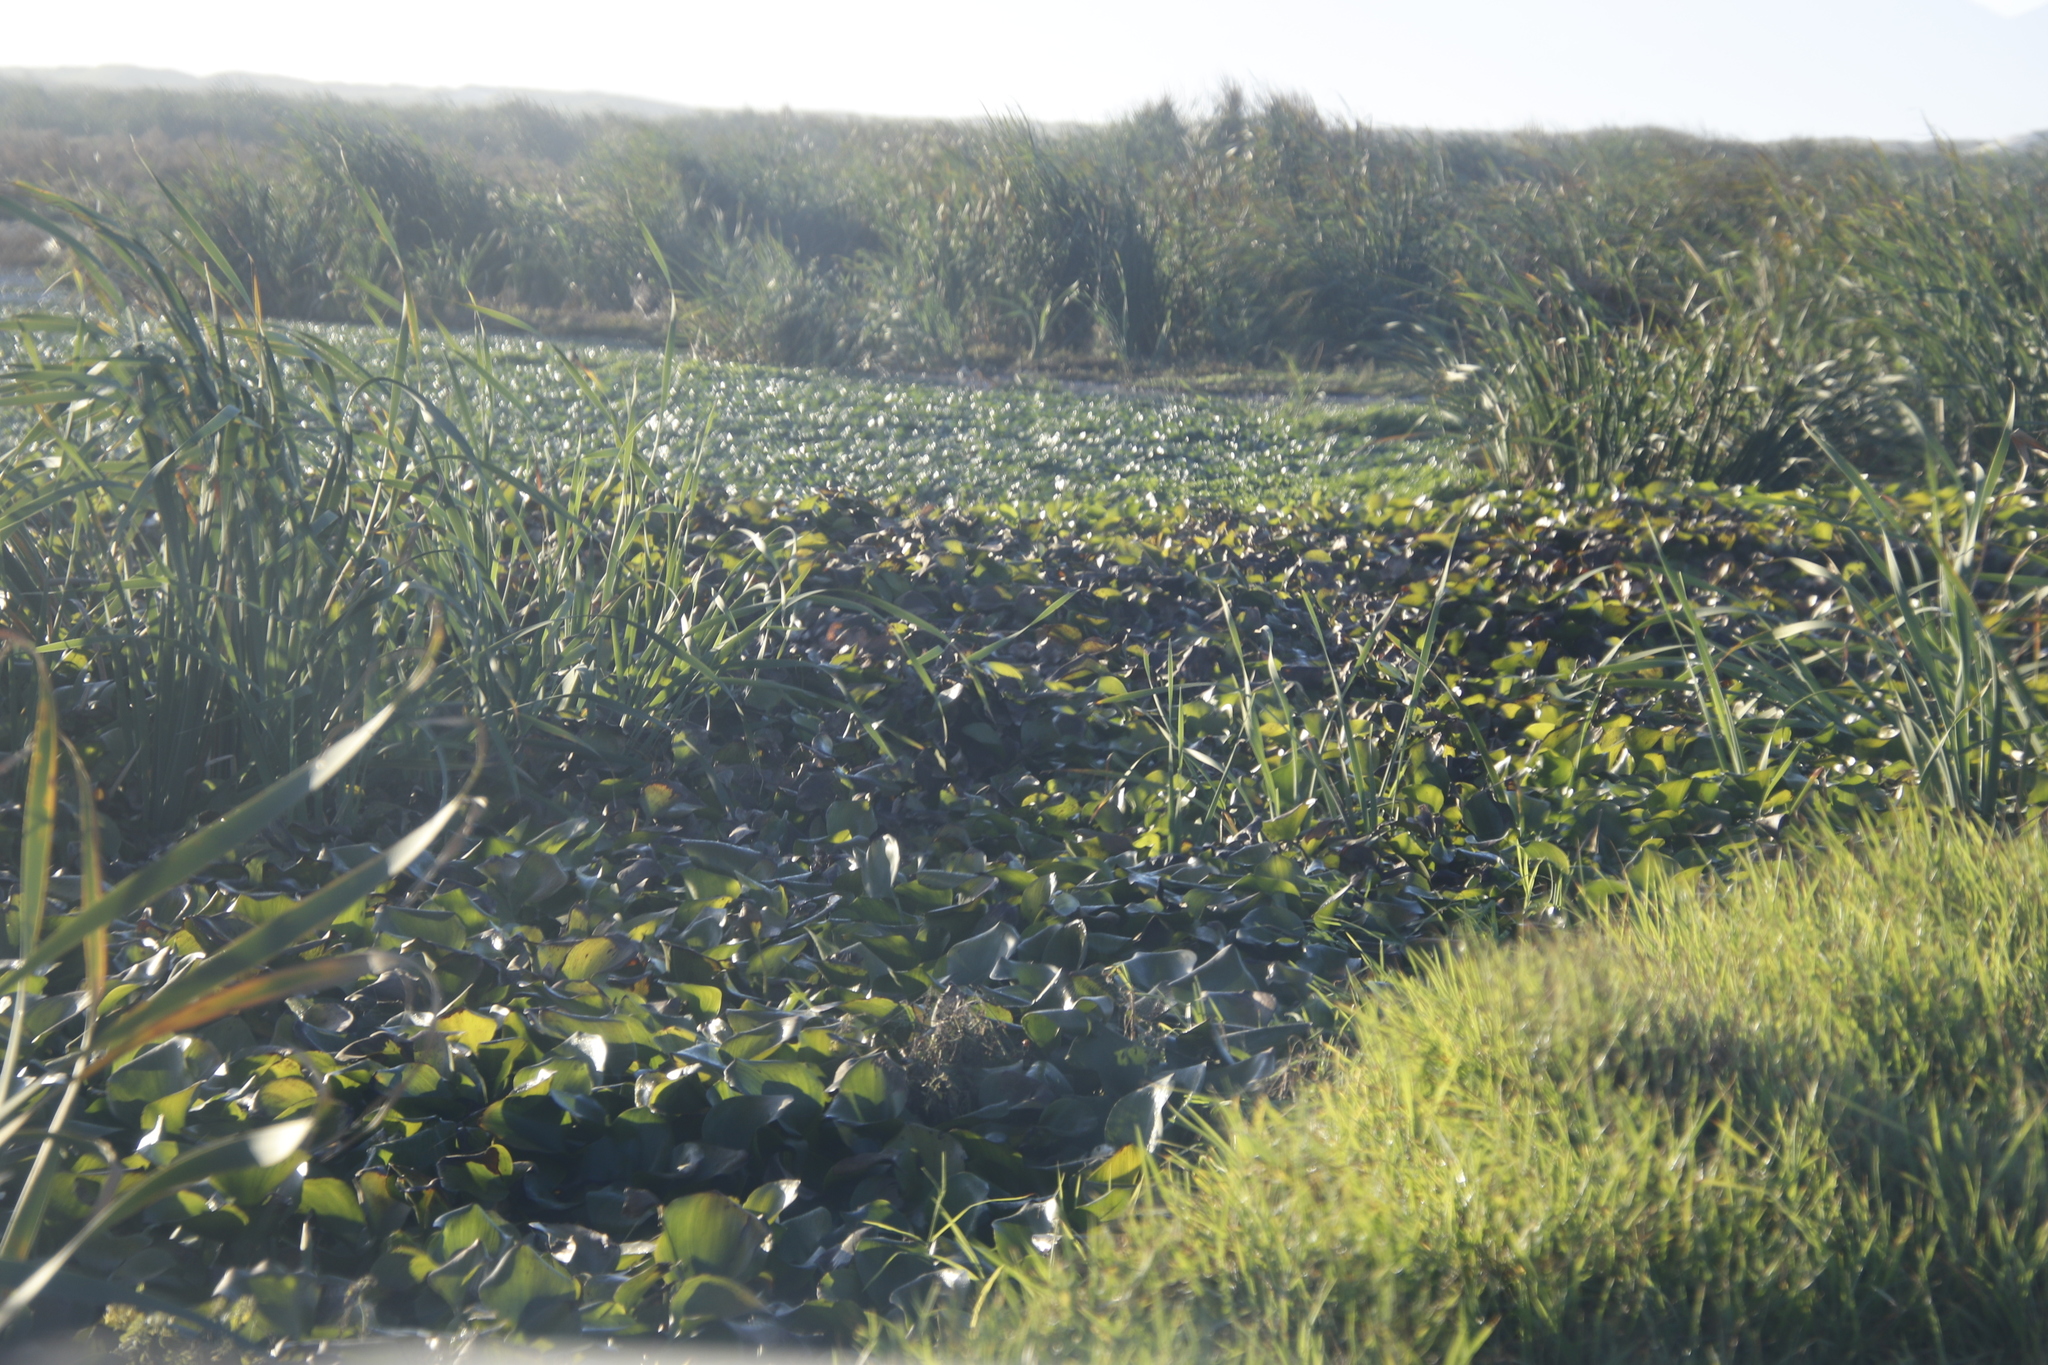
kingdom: Plantae
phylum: Tracheophyta
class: Liliopsida
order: Commelinales
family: Pontederiaceae
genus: Pontederia
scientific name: Pontederia crassipes
